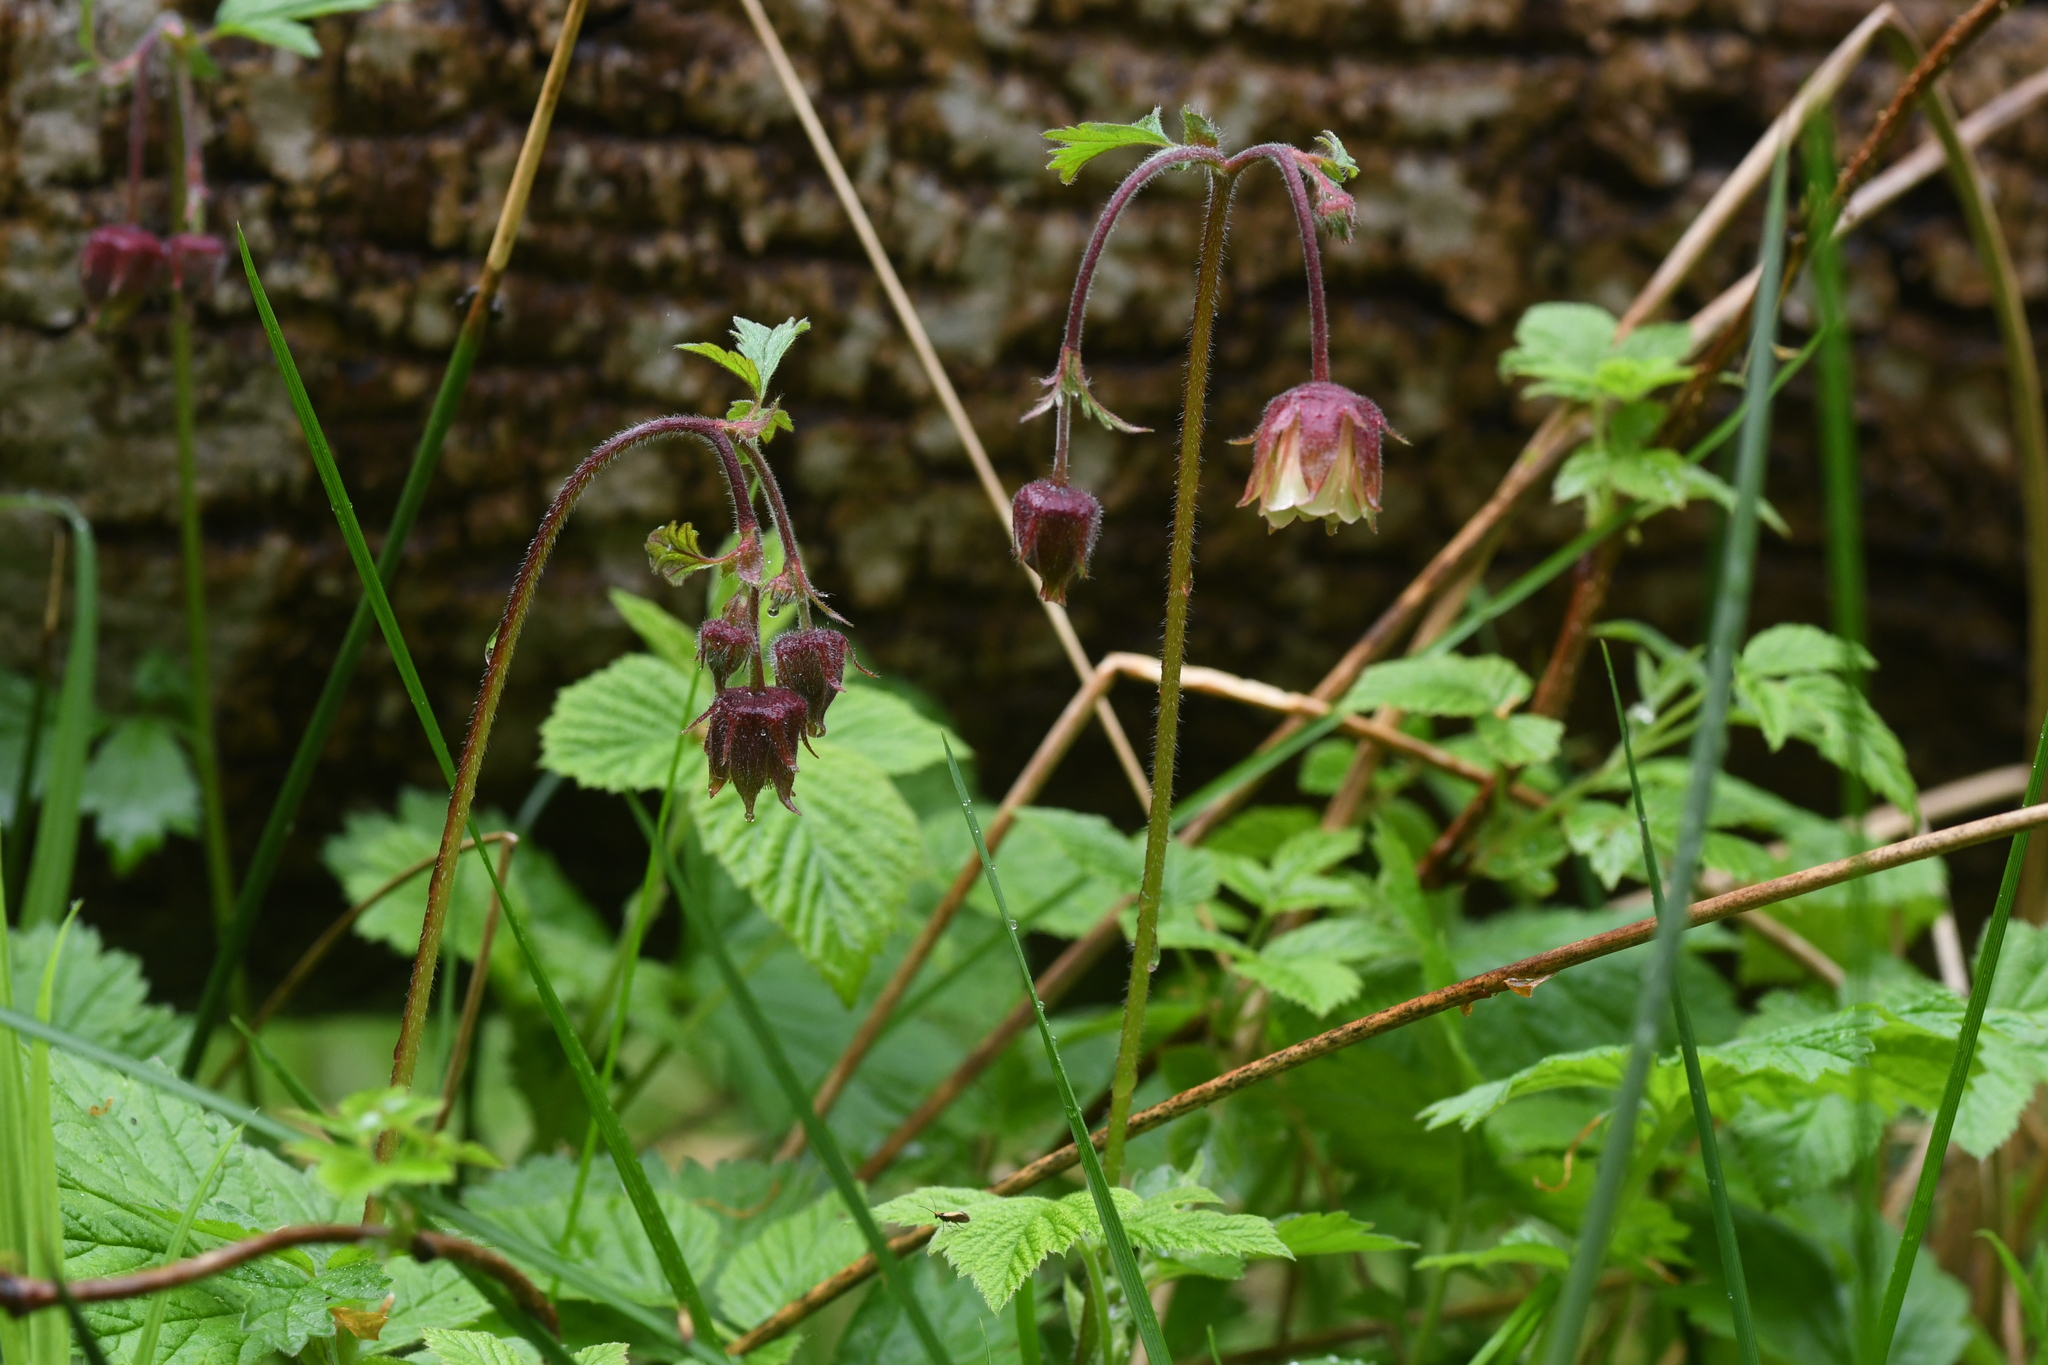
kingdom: Plantae
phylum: Tracheophyta
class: Magnoliopsida
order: Rosales
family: Rosaceae
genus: Geum
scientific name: Geum rivale
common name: Water avens
